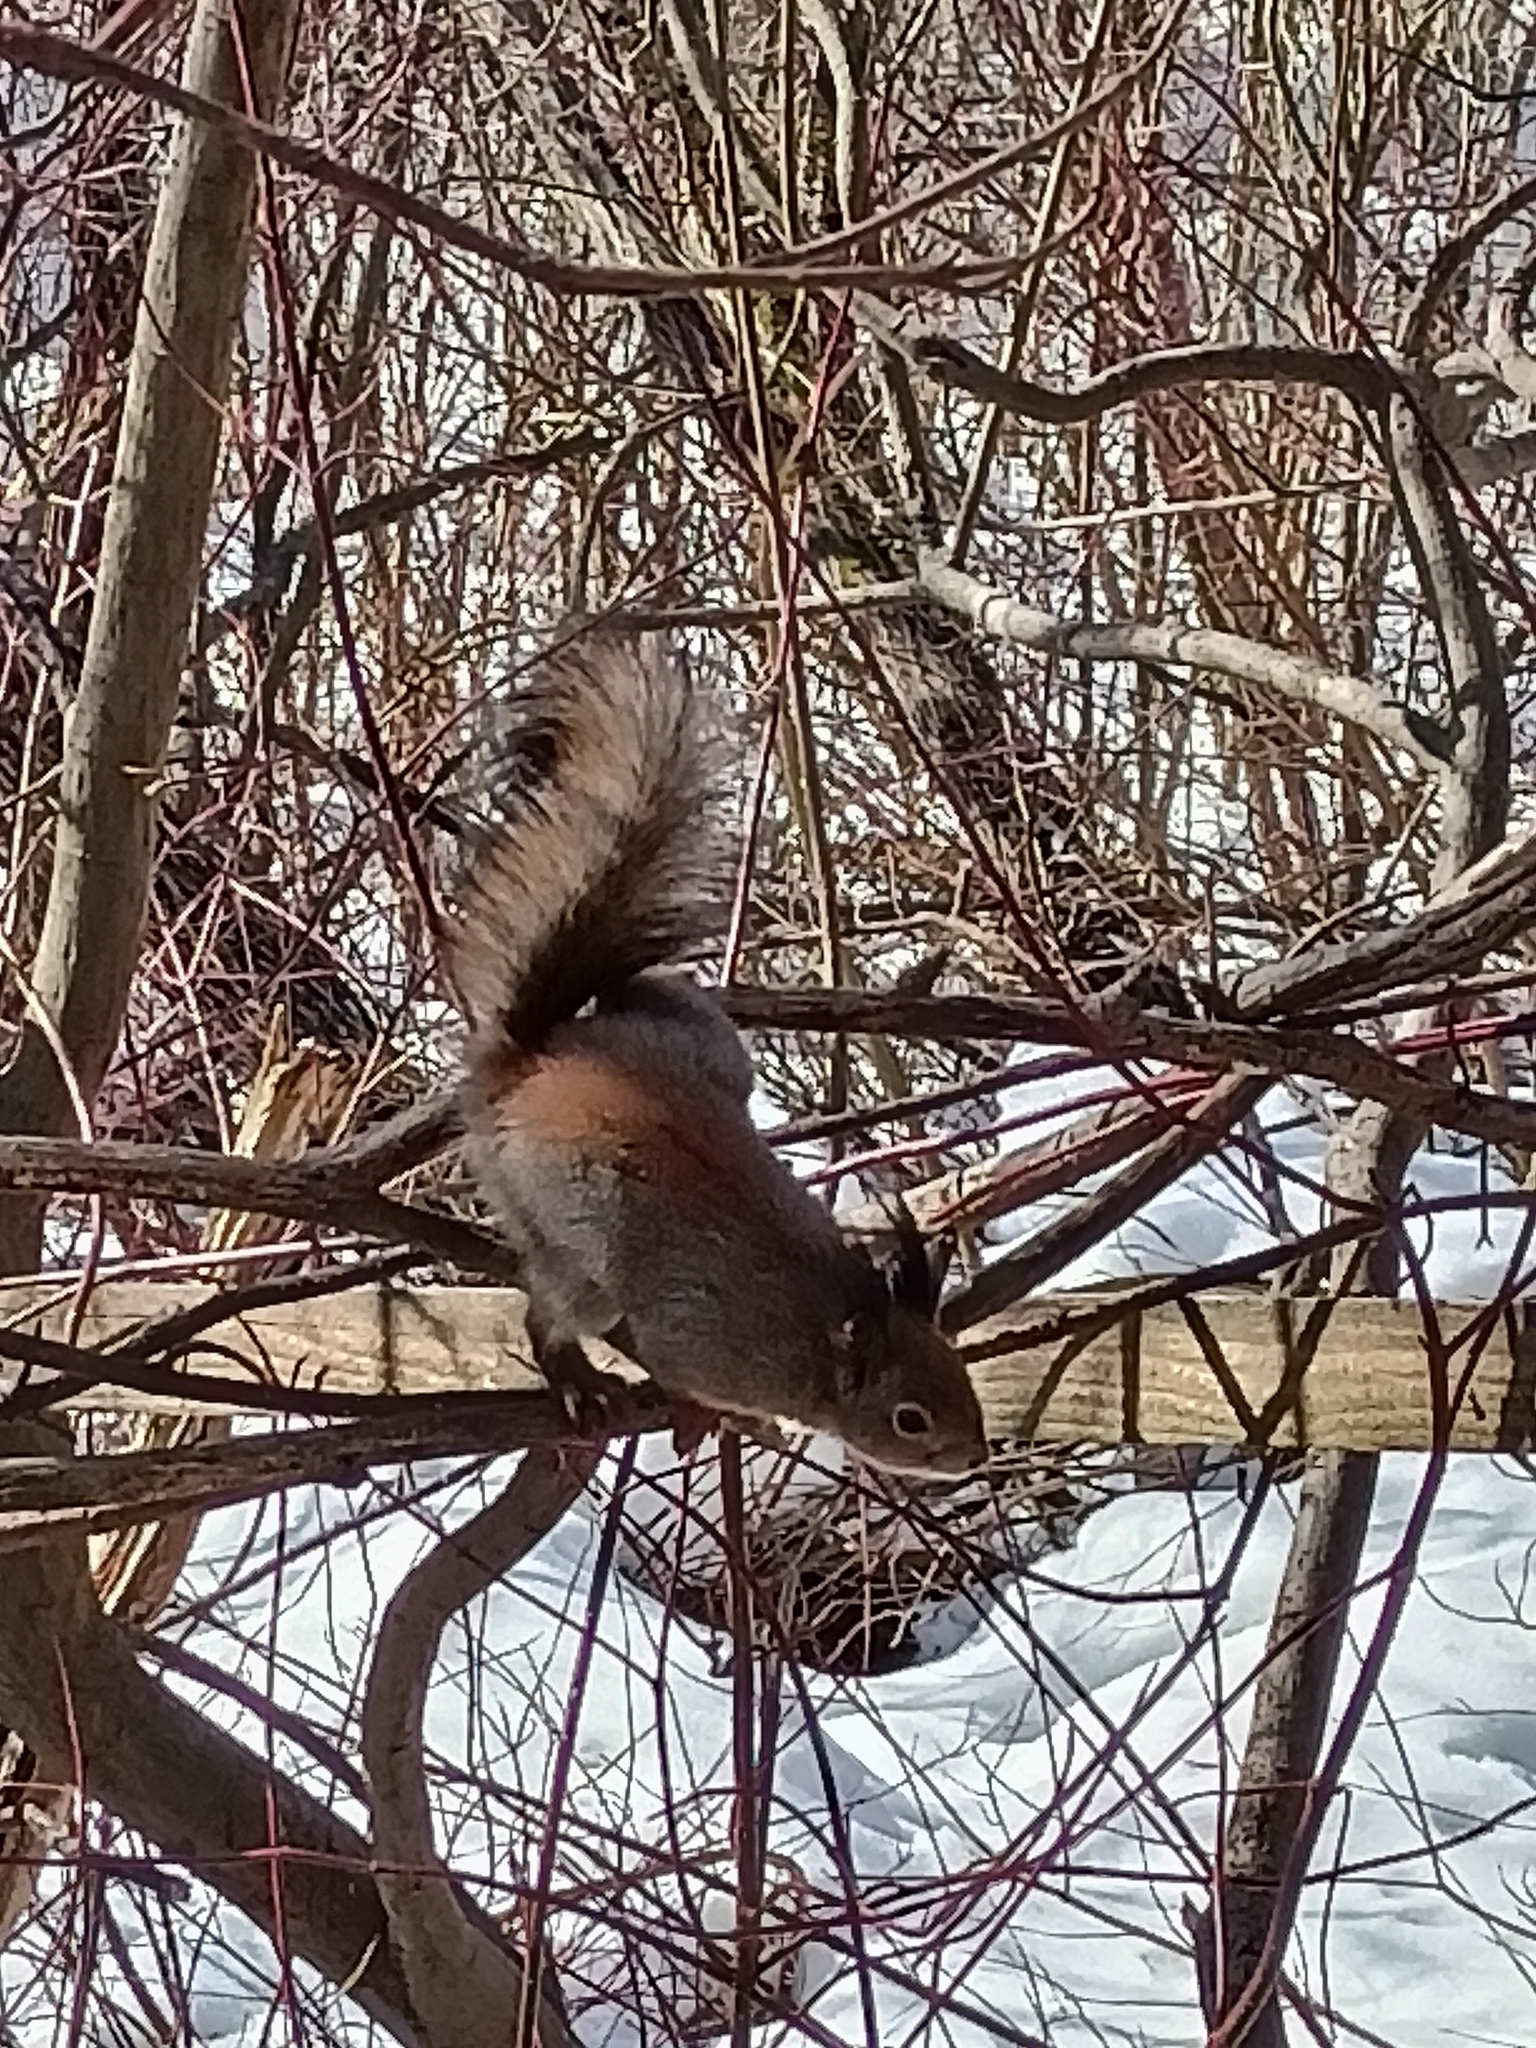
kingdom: Animalia
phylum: Chordata
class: Mammalia
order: Rodentia
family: Sciuridae
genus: Sciurus
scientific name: Sciurus vulgaris
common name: Eurasian red squirrel
